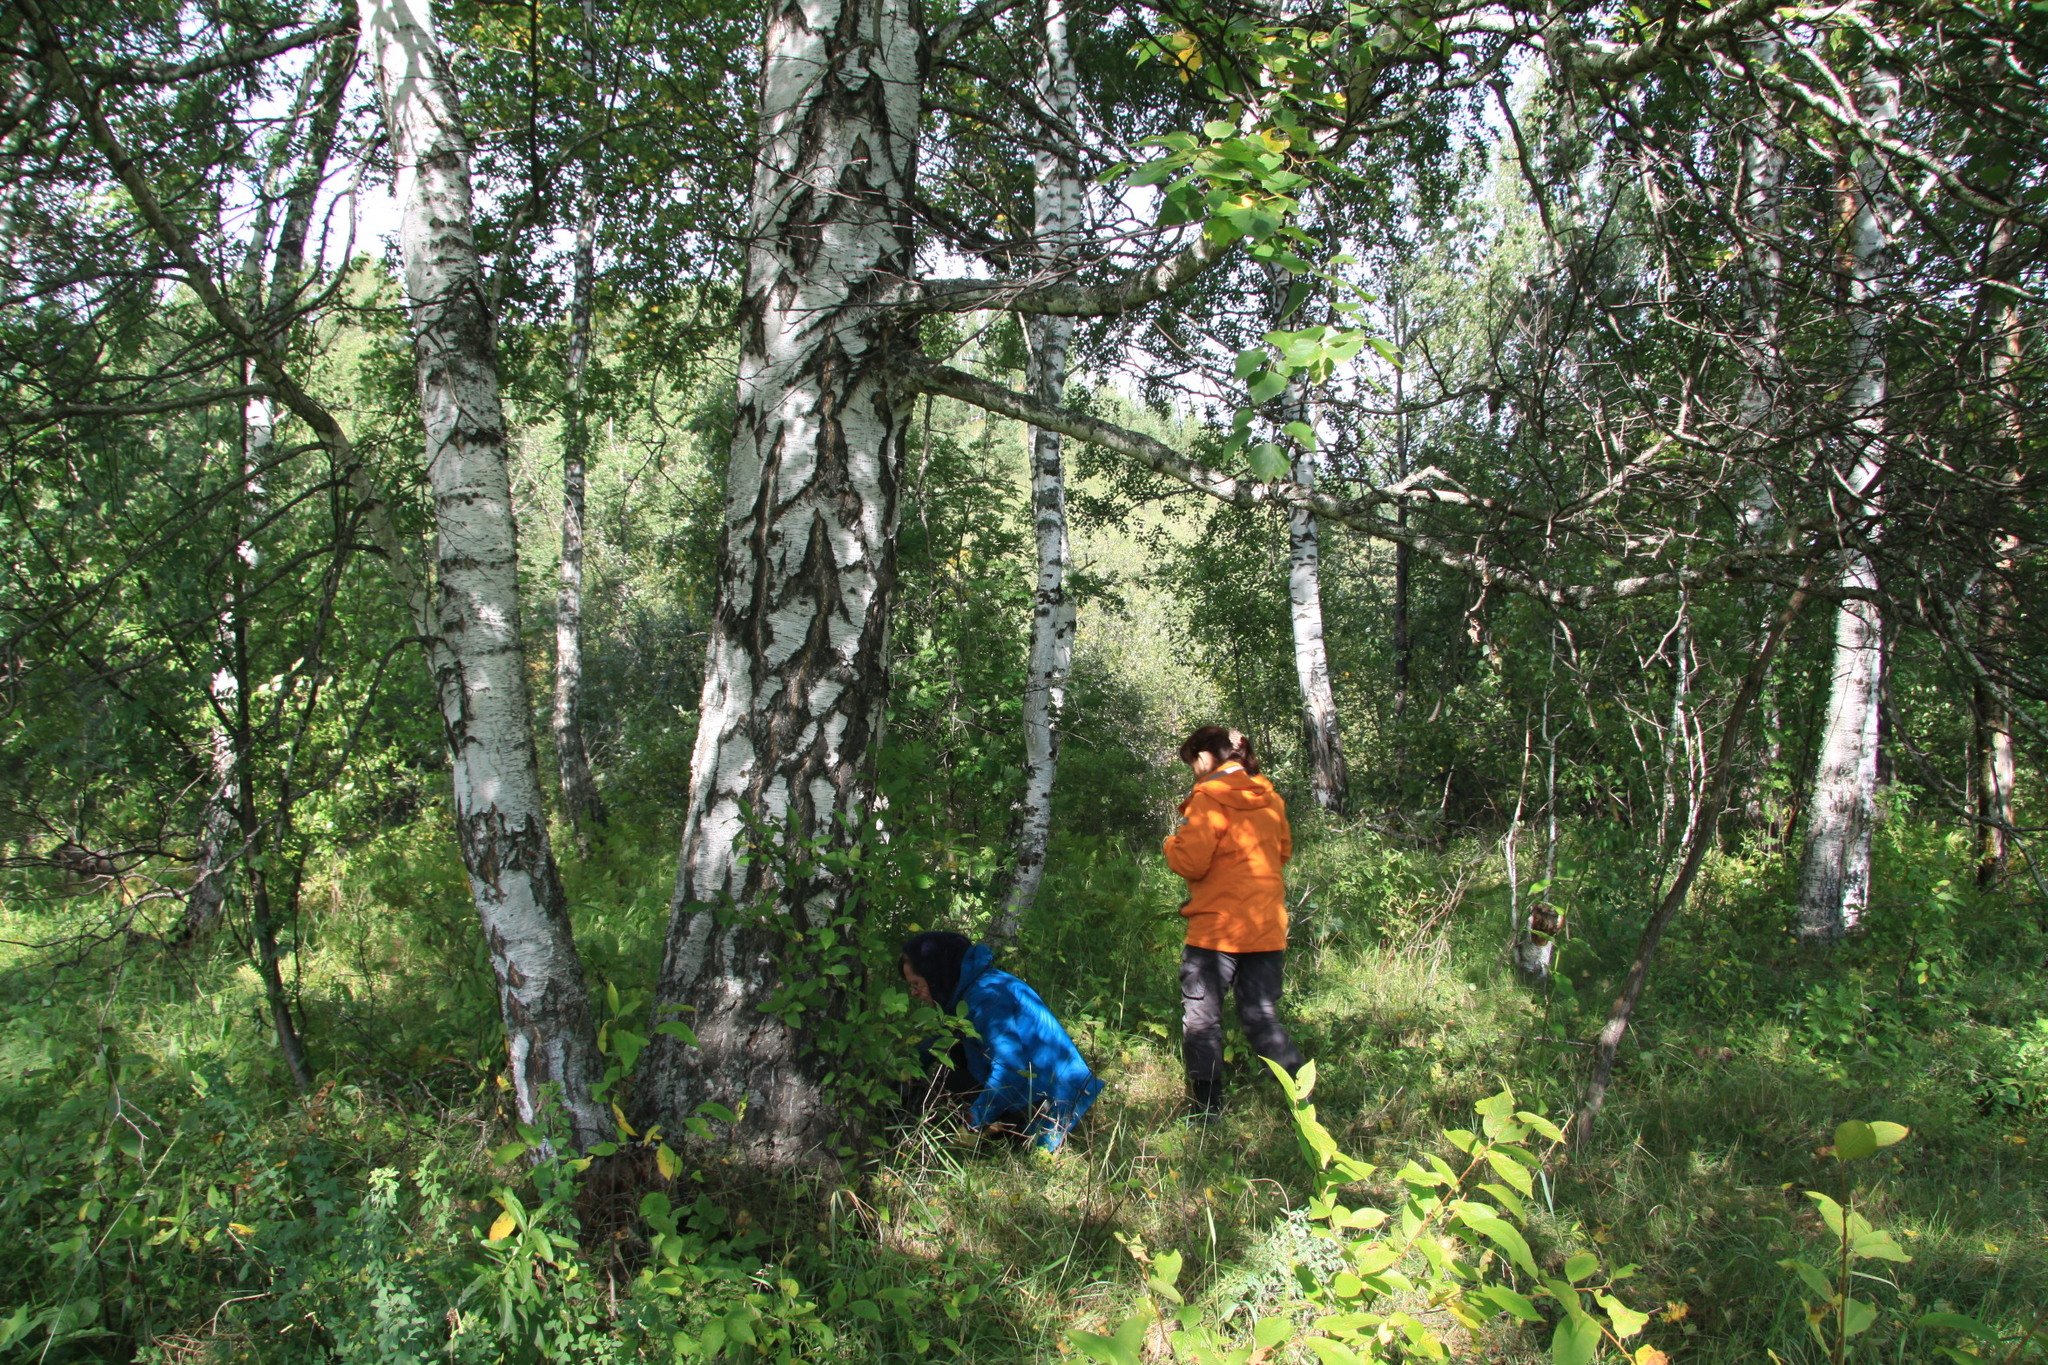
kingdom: Plantae
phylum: Tracheophyta
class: Magnoliopsida
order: Fagales
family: Betulaceae
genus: Betula
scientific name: Betula pendula
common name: Silver birch
